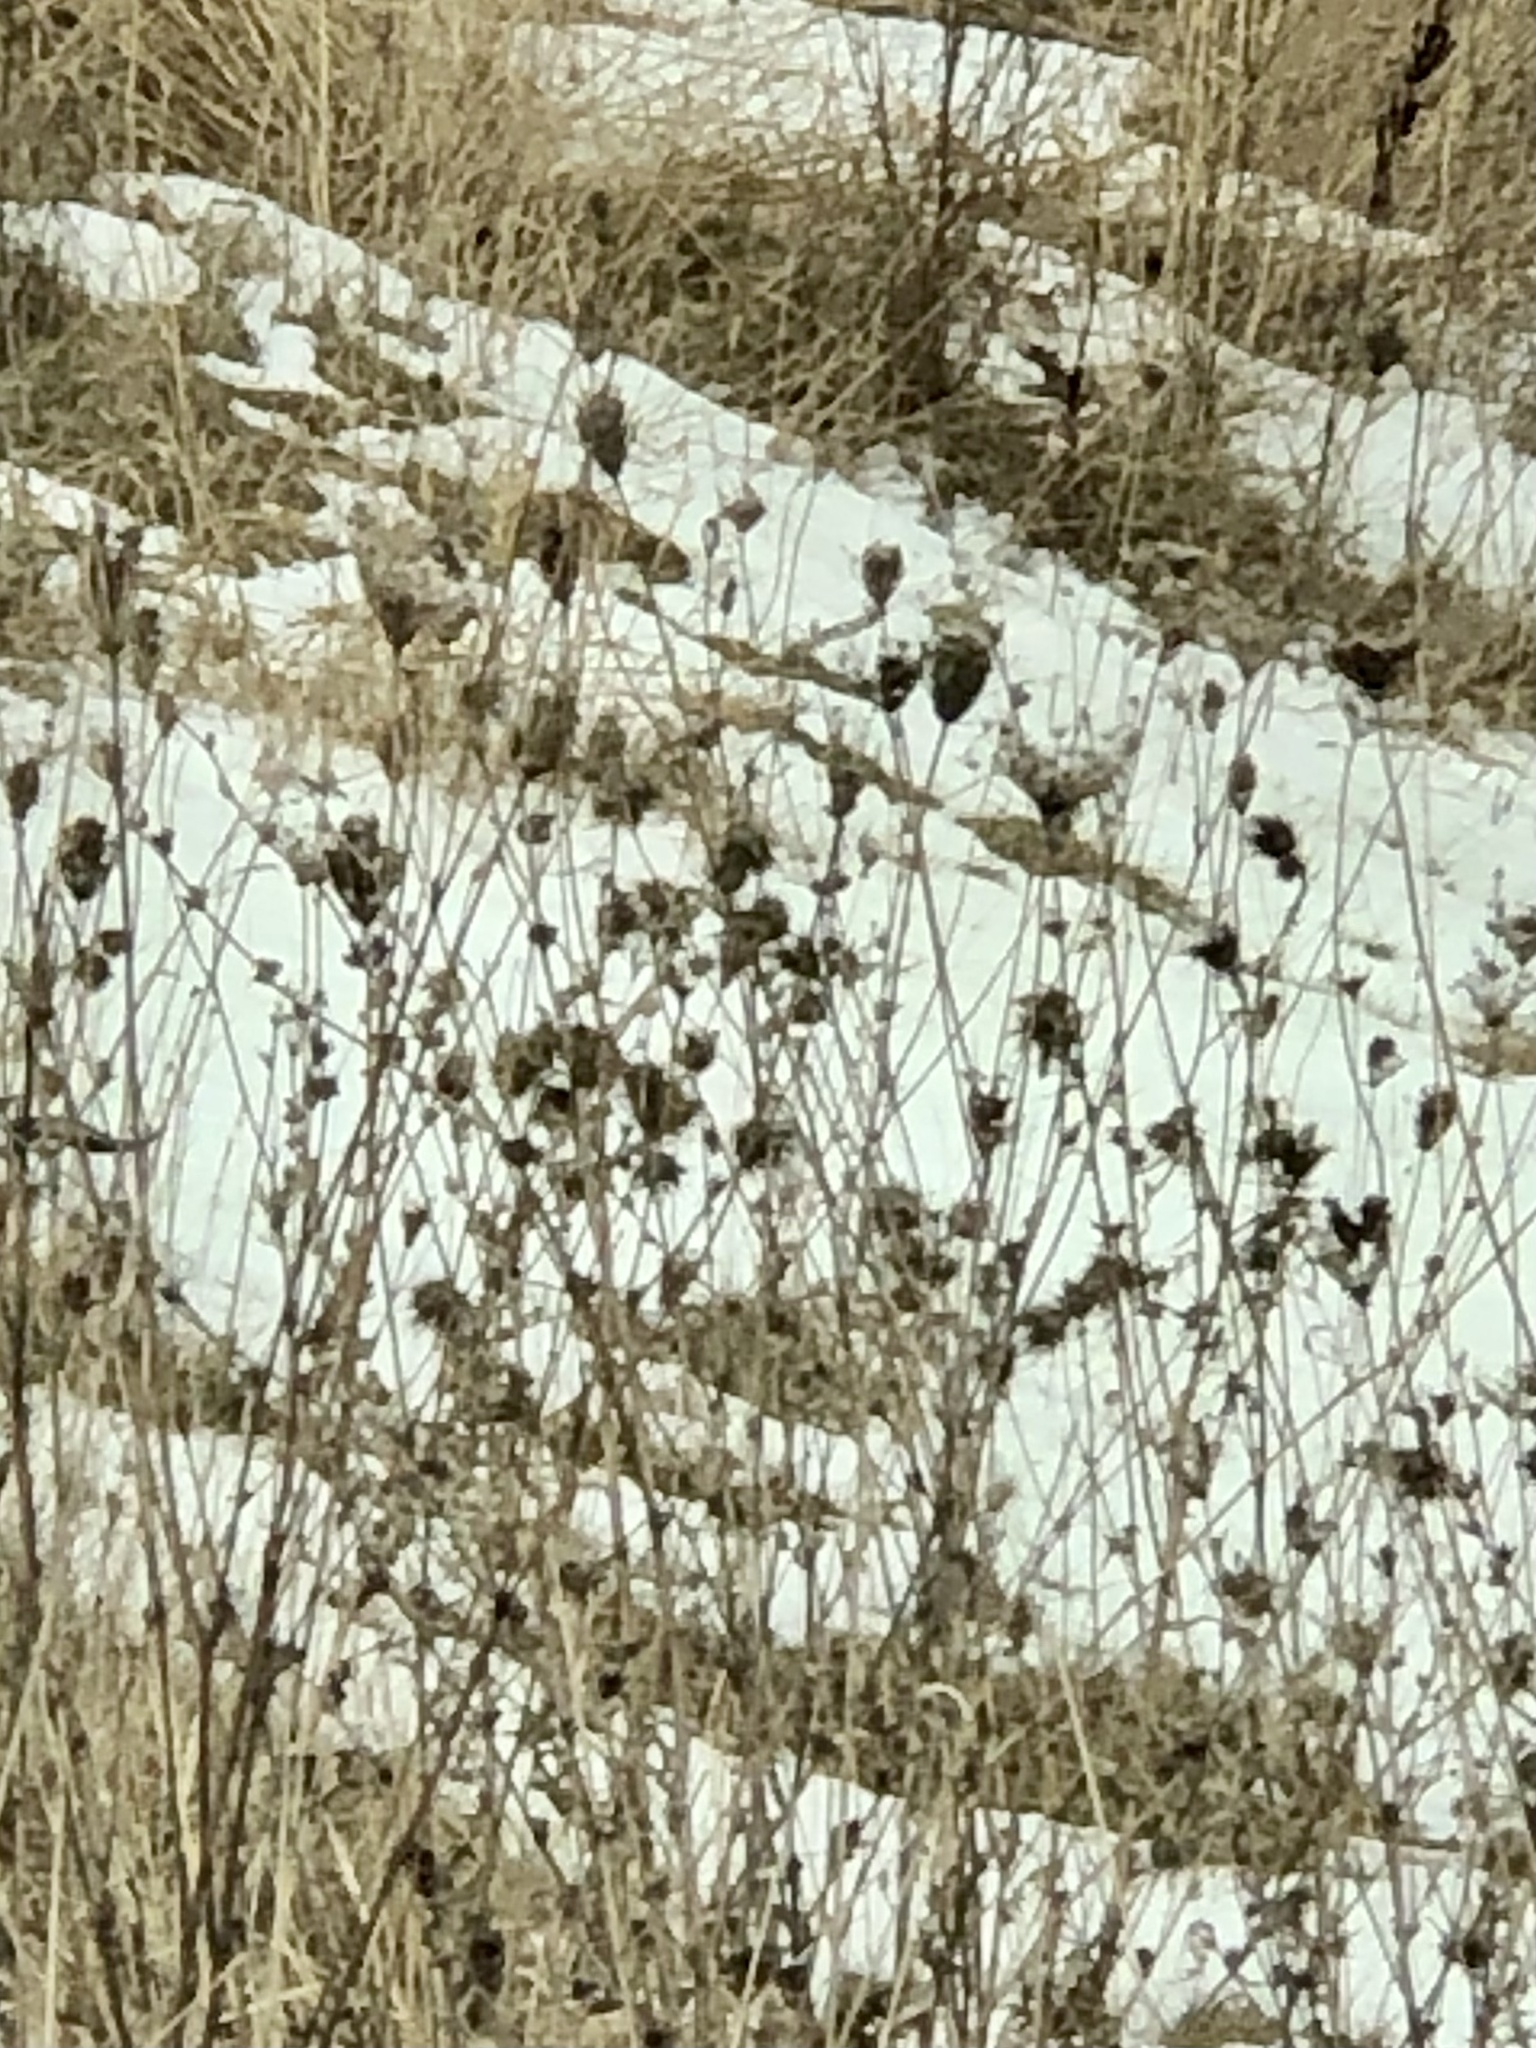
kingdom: Plantae
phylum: Tracheophyta
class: Magnoliopsida
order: Apiales
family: Apiaceae
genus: Daucus
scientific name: Daucus carota
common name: Wild carrot
